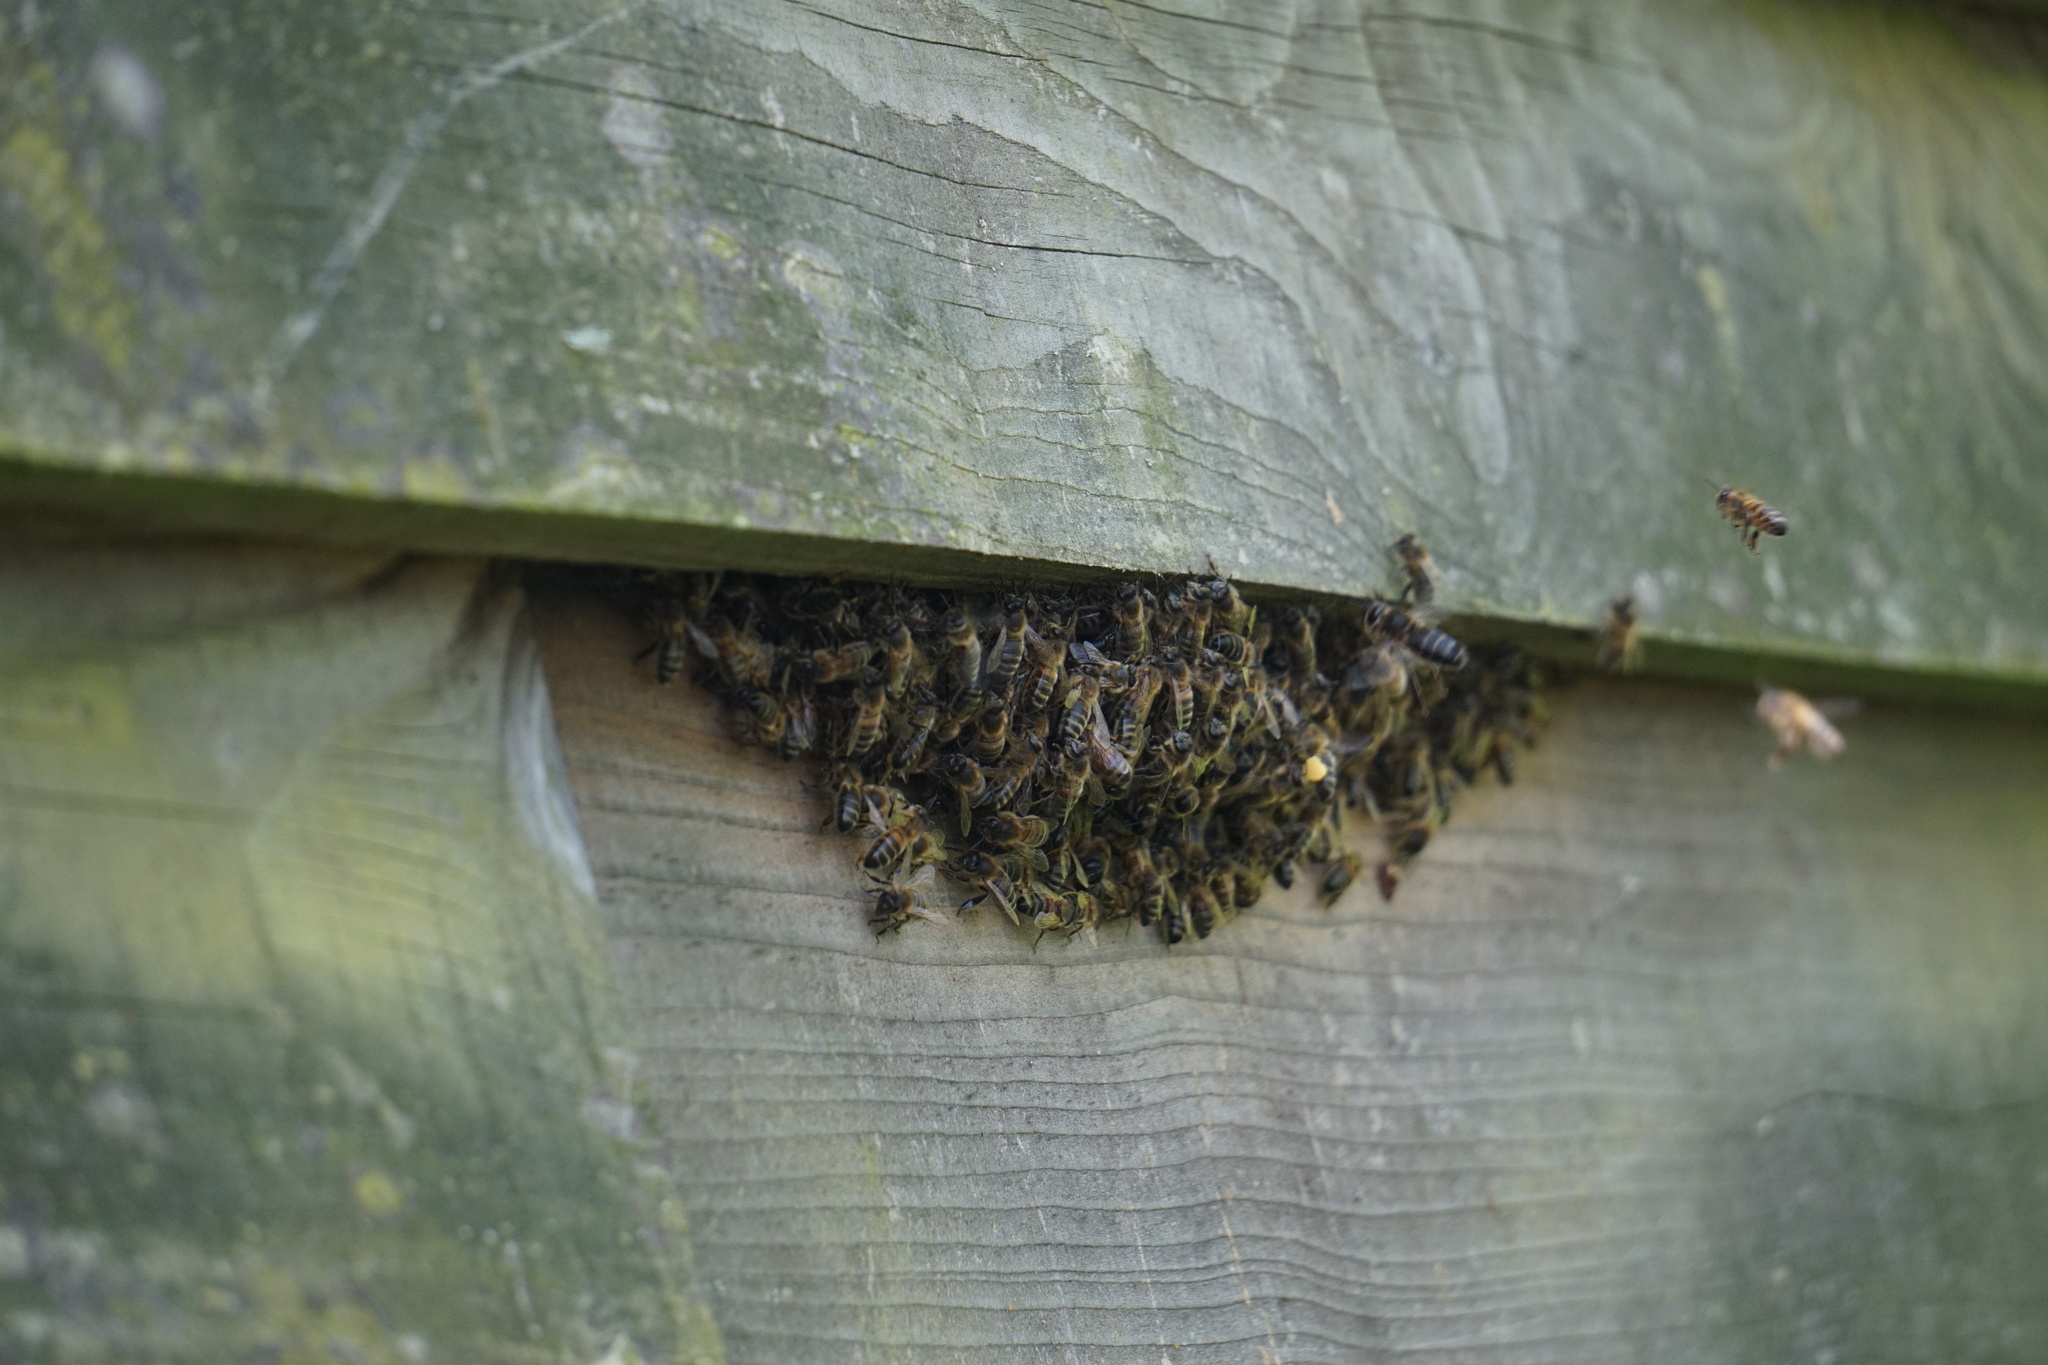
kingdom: Animalia
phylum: Arthropoda
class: Insecta
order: Hymenoptera
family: Apidae
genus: Apis
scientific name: Apis mellifera
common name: Honey bee
